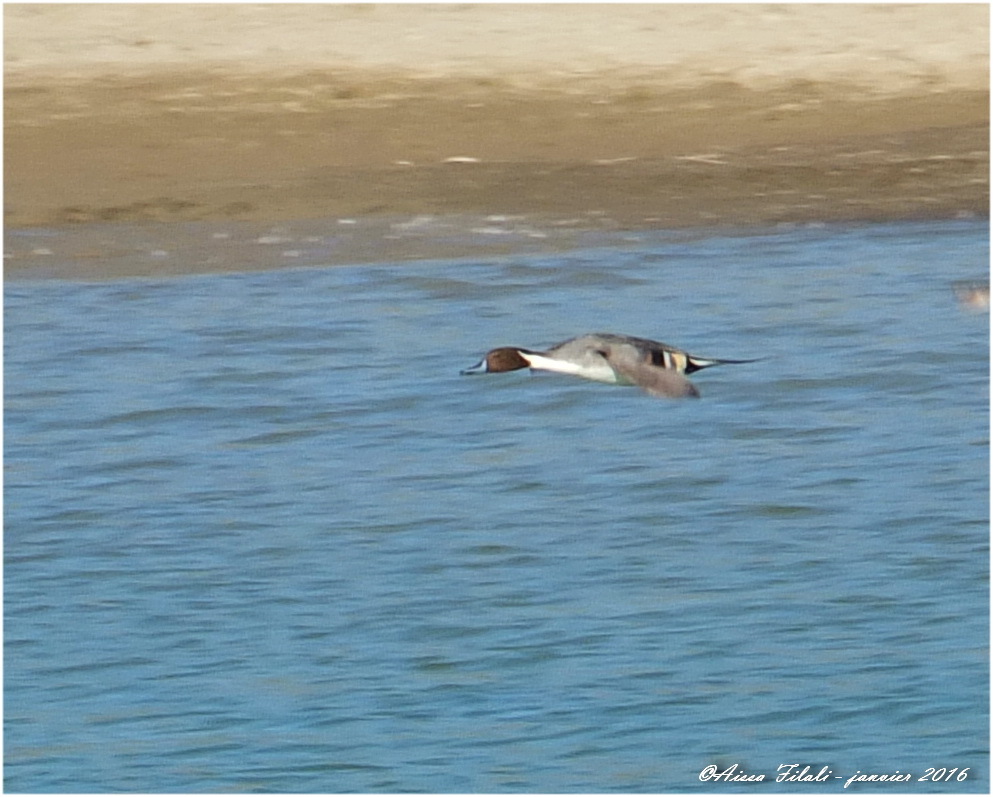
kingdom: Animalia
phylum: Chordata
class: Aves
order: Anseriformes
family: Anatidae
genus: Anas
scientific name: Anas acuta
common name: Northern pintail
